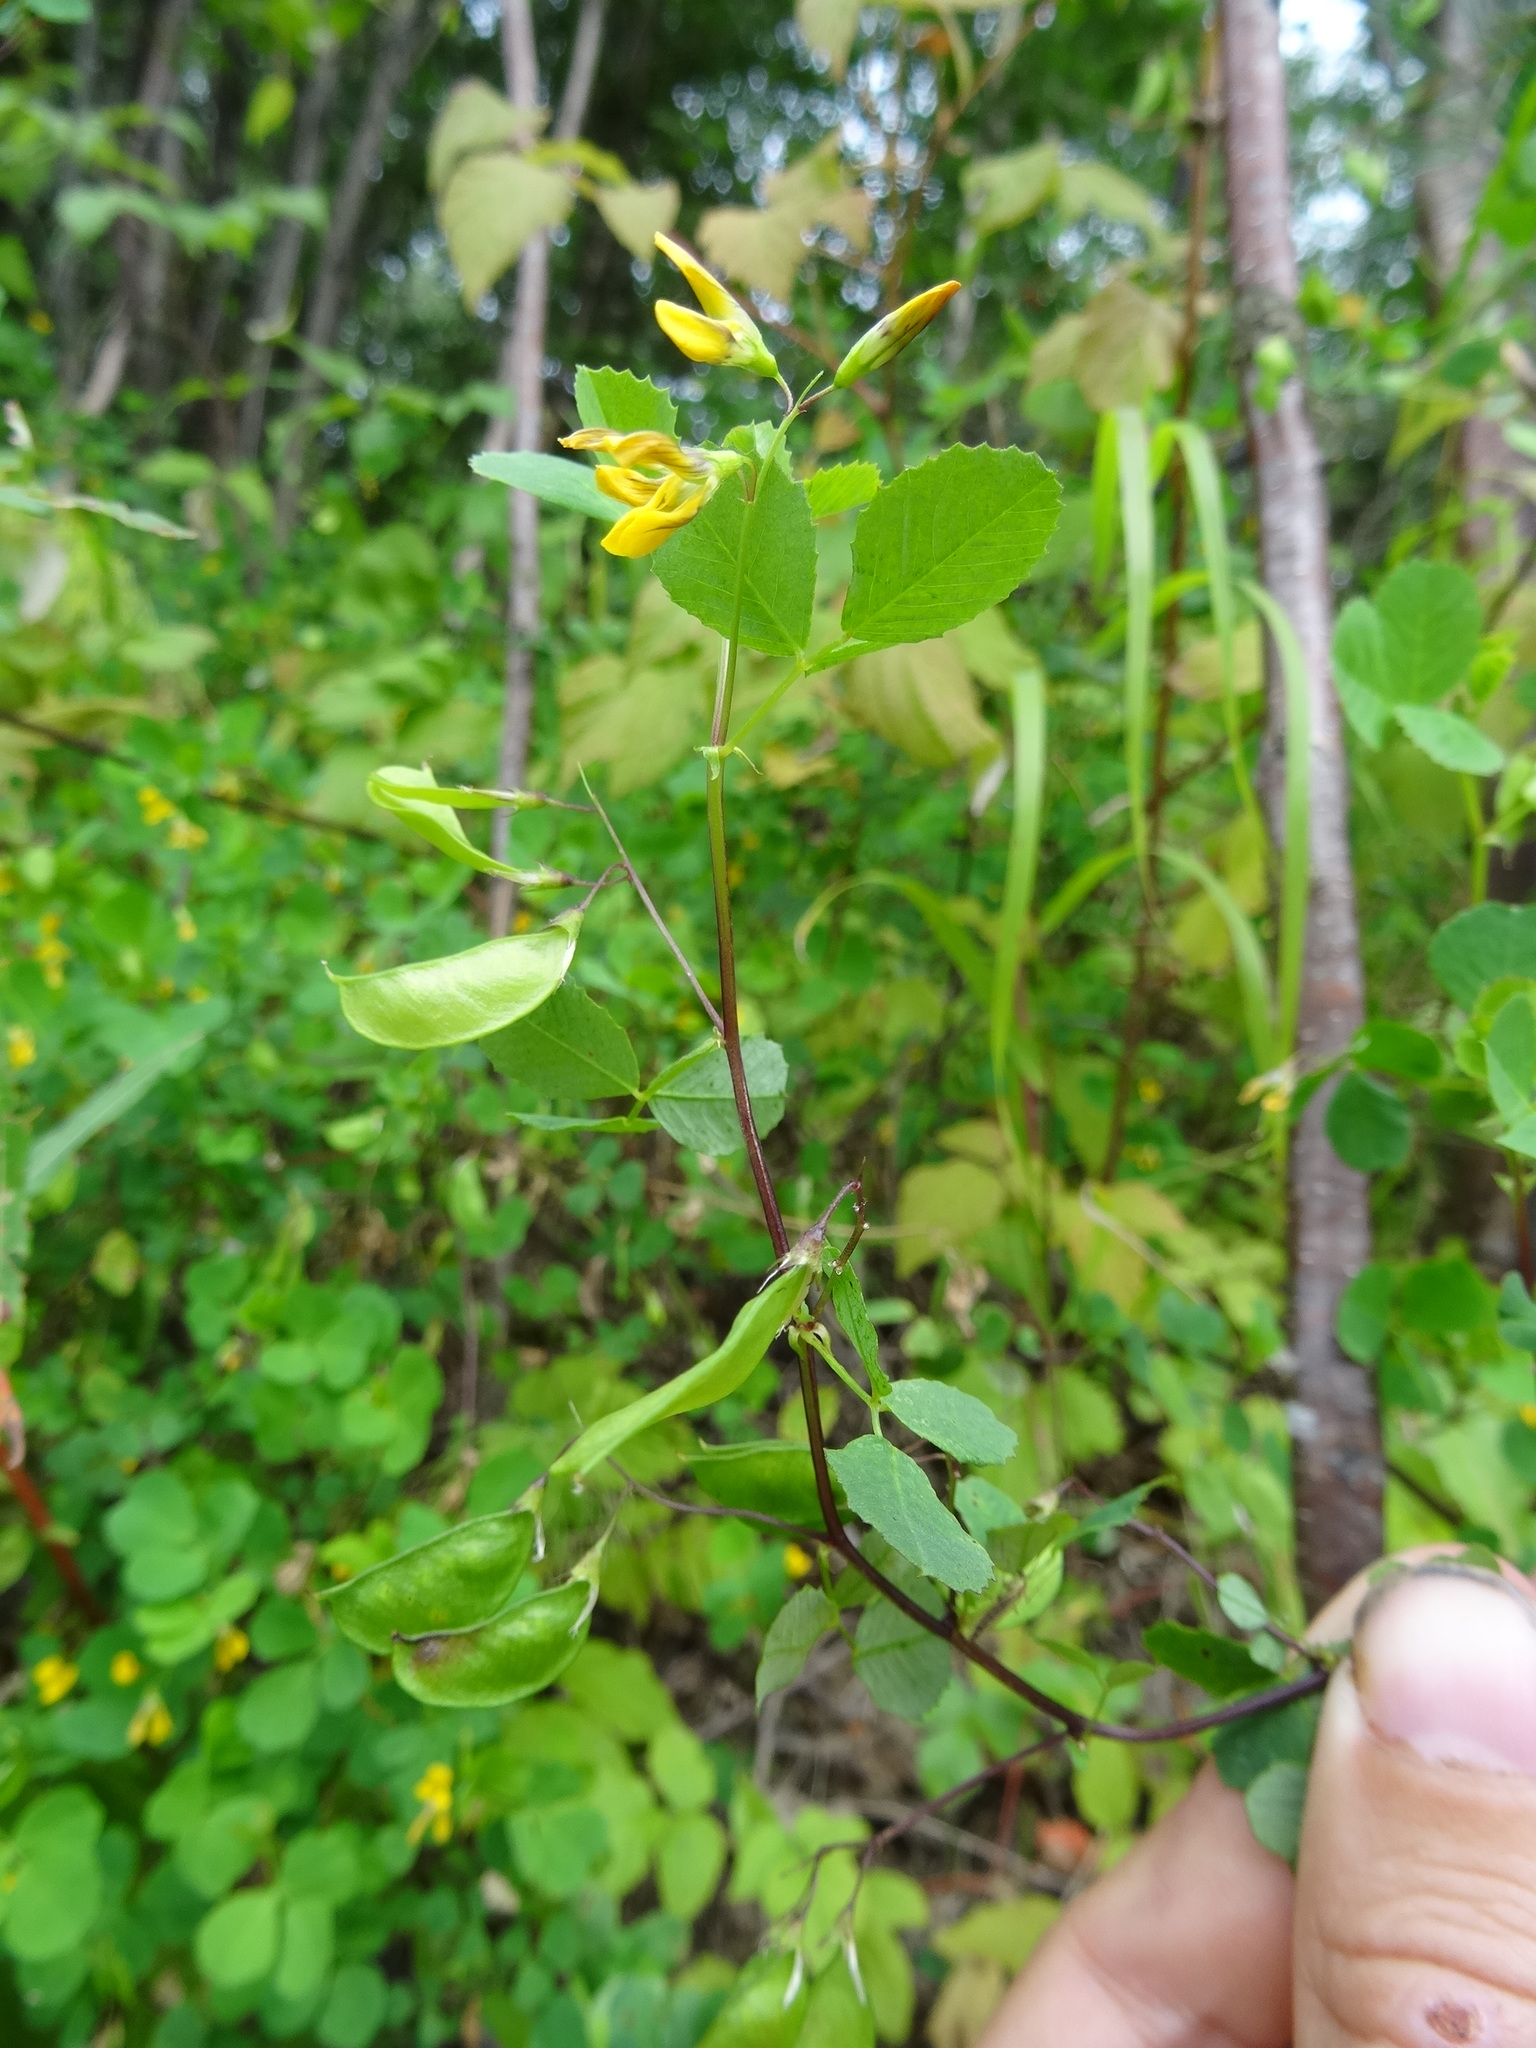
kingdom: Plantae
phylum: Tracheophyta
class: Magnoliopsida
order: Fabales
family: Fabaceae
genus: Medicago
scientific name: Medicago platycarpos
